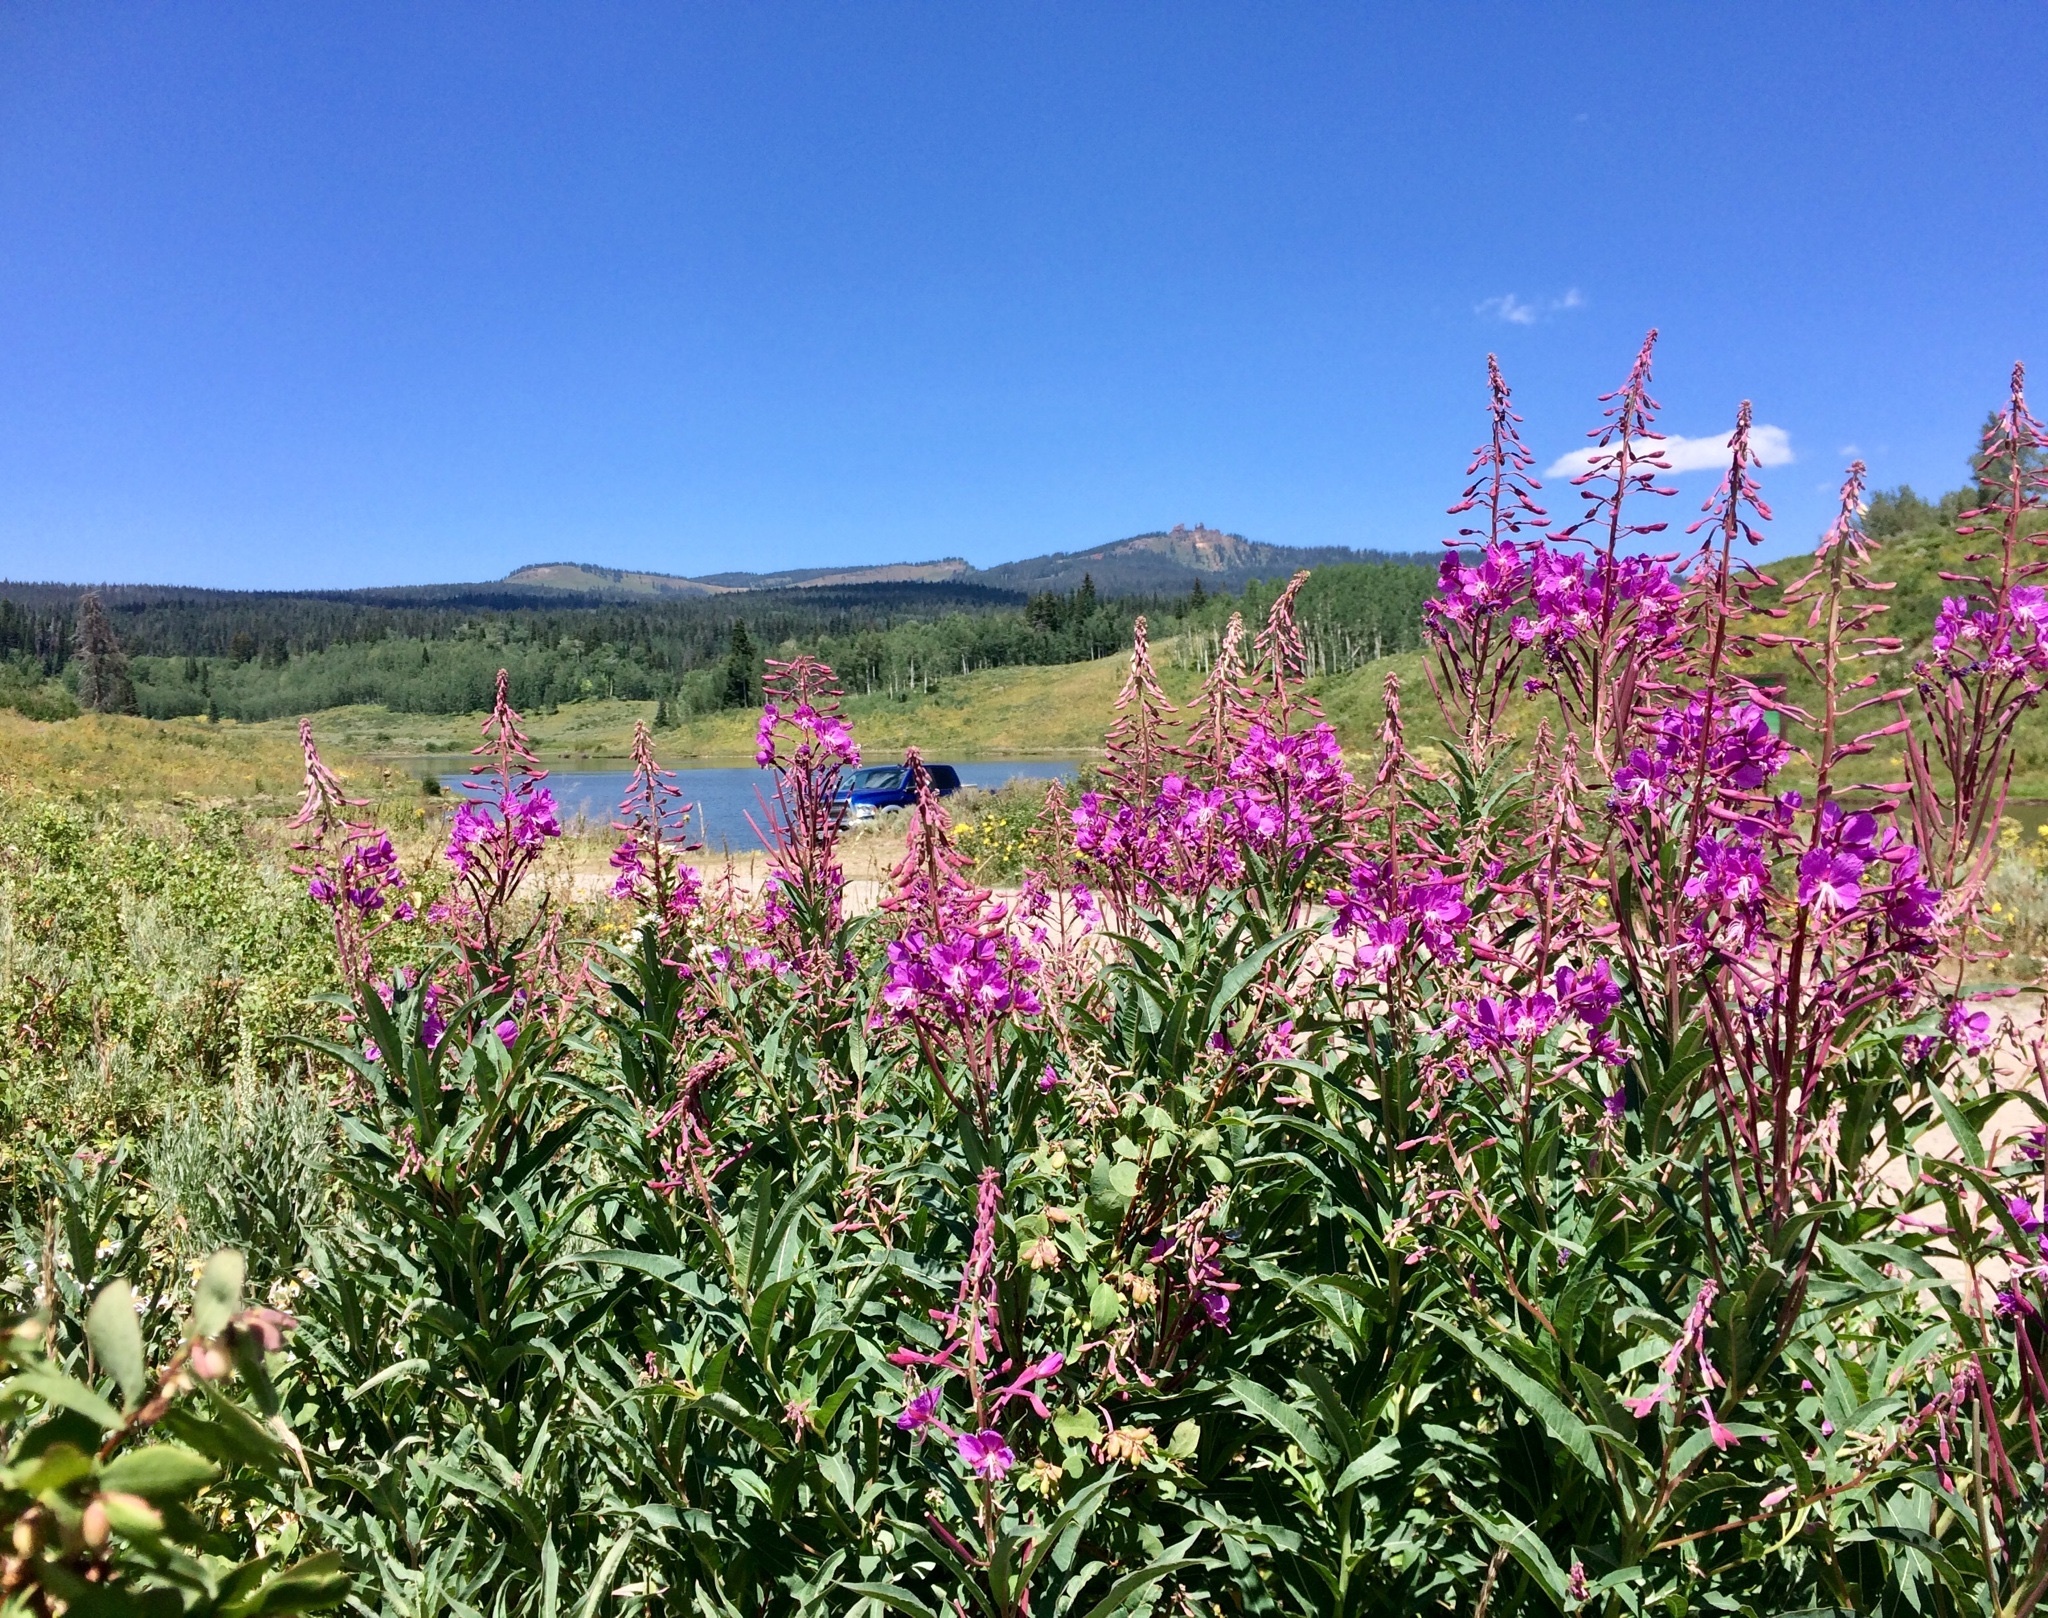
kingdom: Plantae
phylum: Tracheophyta
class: Magnoliopsida
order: Myrtales
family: Onagraceae
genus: Chamaenerion
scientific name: Chamaenerion angustifolium
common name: Fireweed
